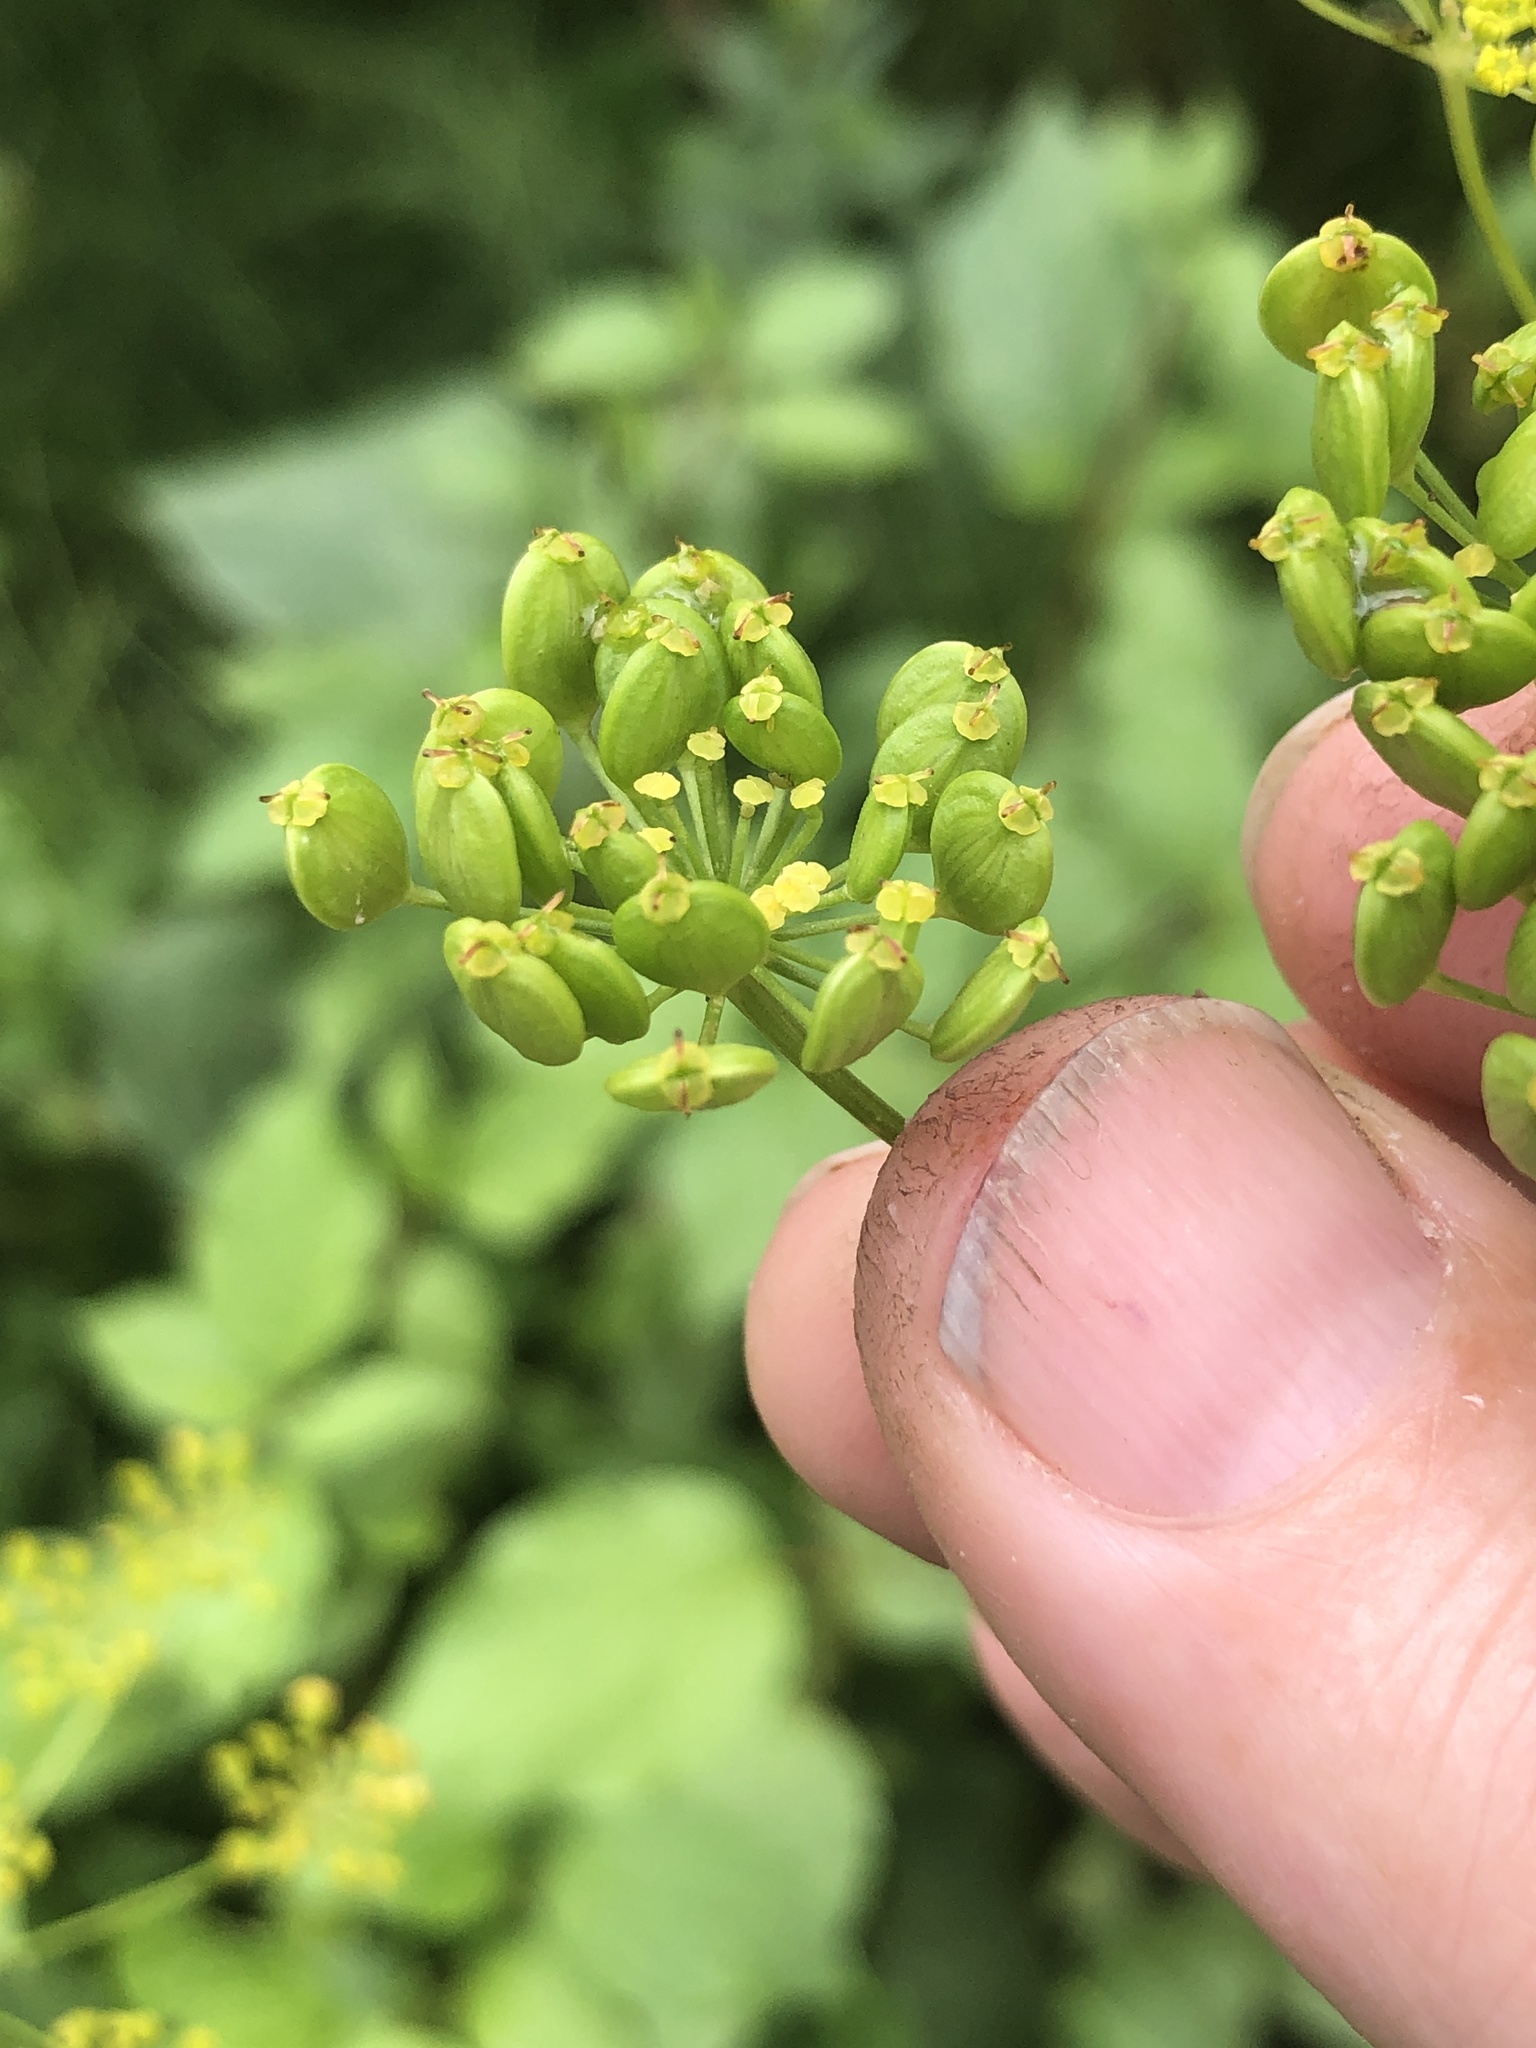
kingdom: Plantae
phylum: Tracheophyta
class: Magnoliopsida
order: Apiales
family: Apiaceae
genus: Pastinaca
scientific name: Pastinaca sativa
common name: Wild parsnip
